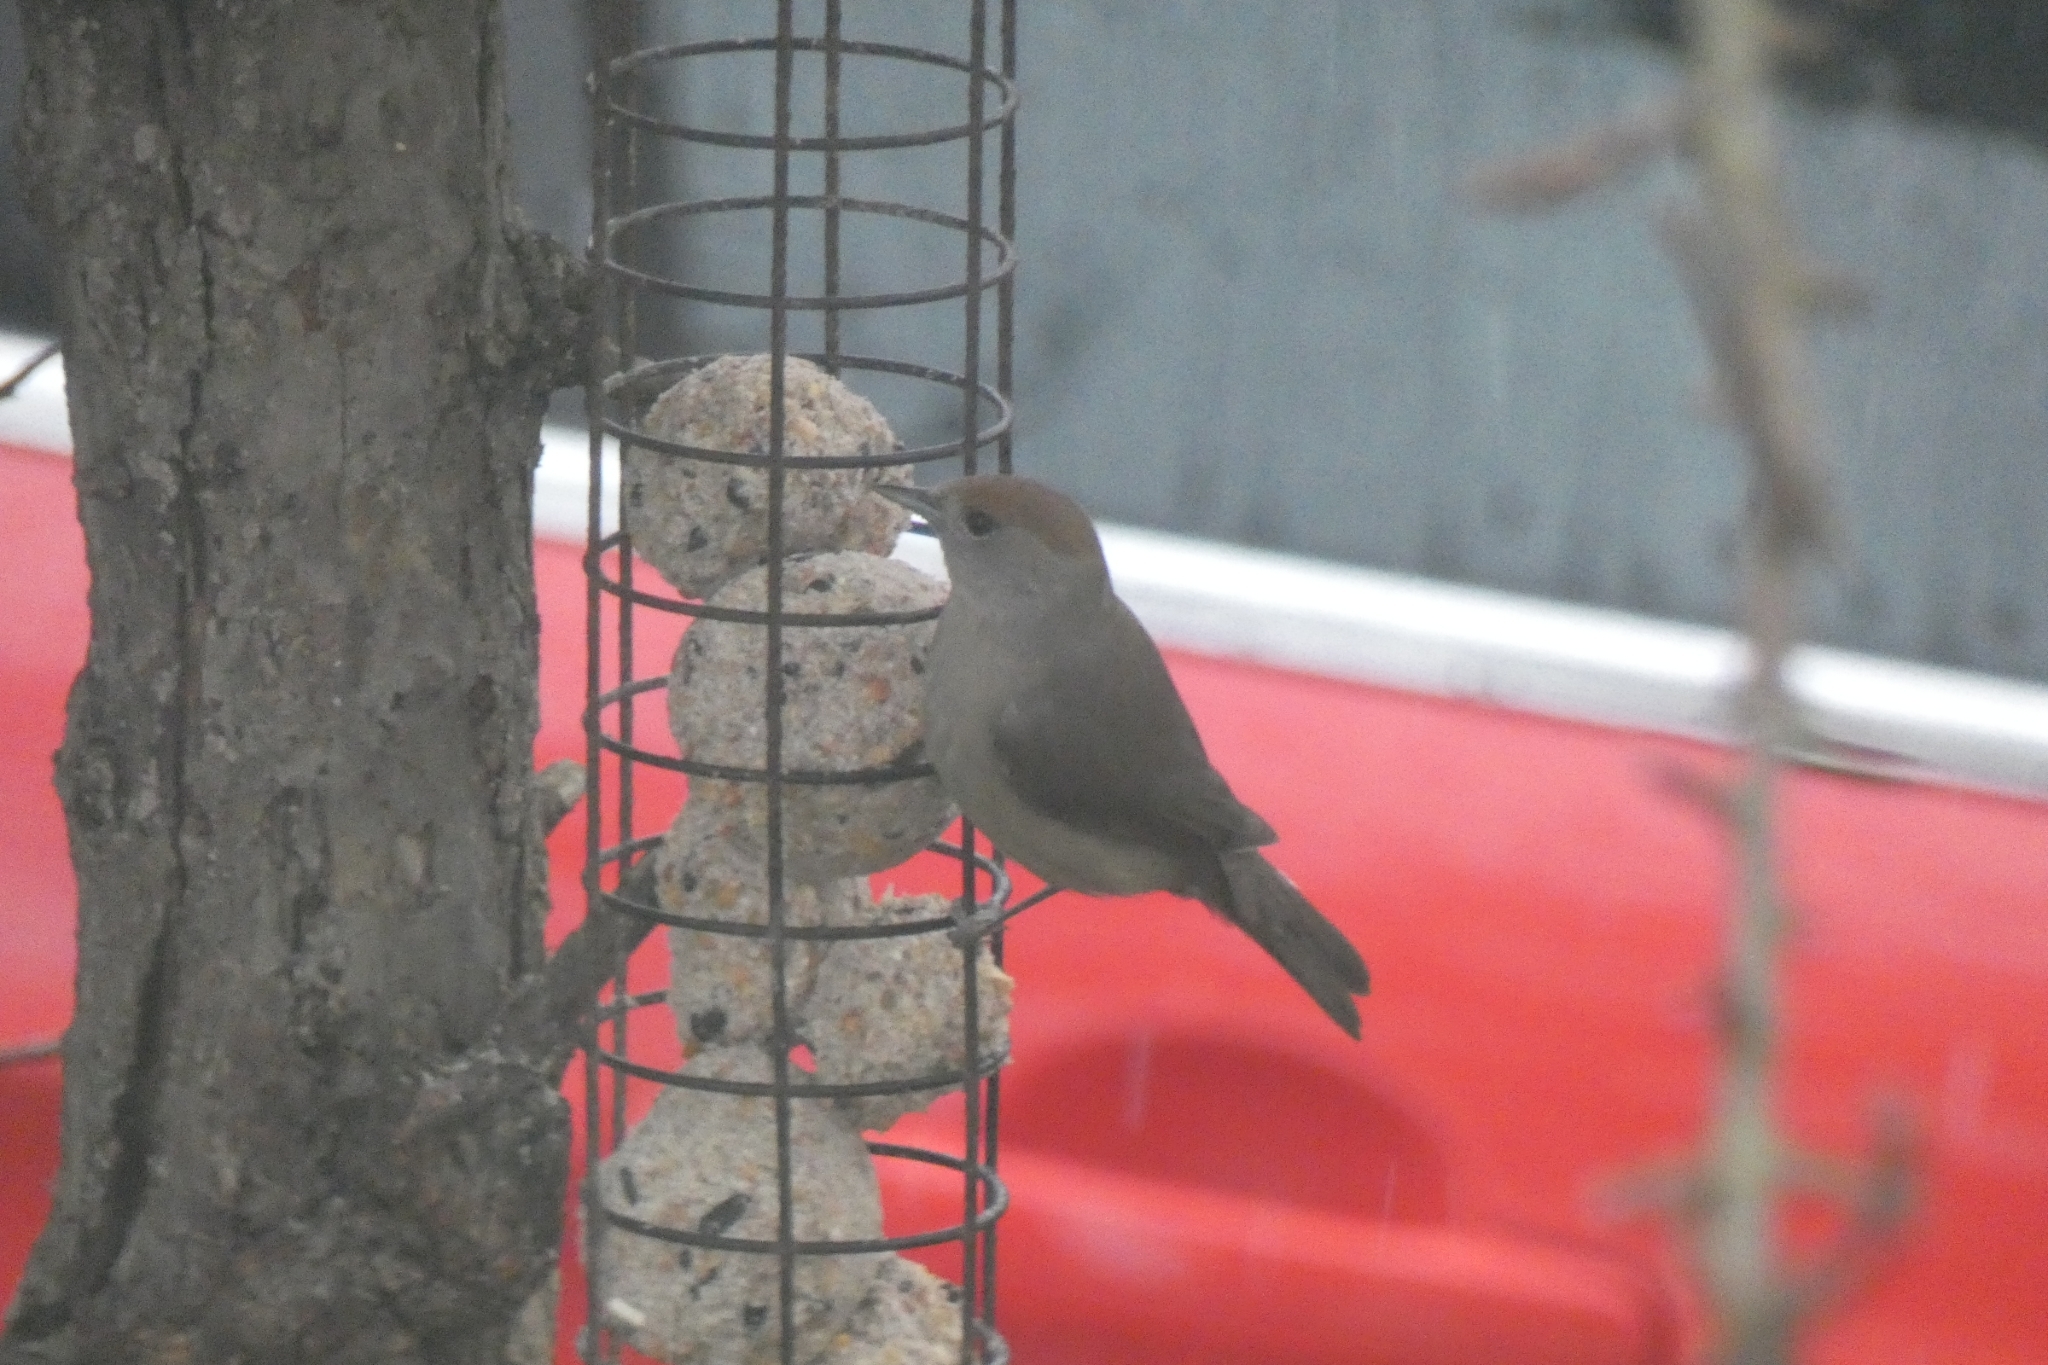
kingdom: Animalia
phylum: Chordata
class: Aves
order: Passeriformes
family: Sylviidae
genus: Sylvia
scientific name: Sylvia atricapilla
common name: Eurasian blackcap
